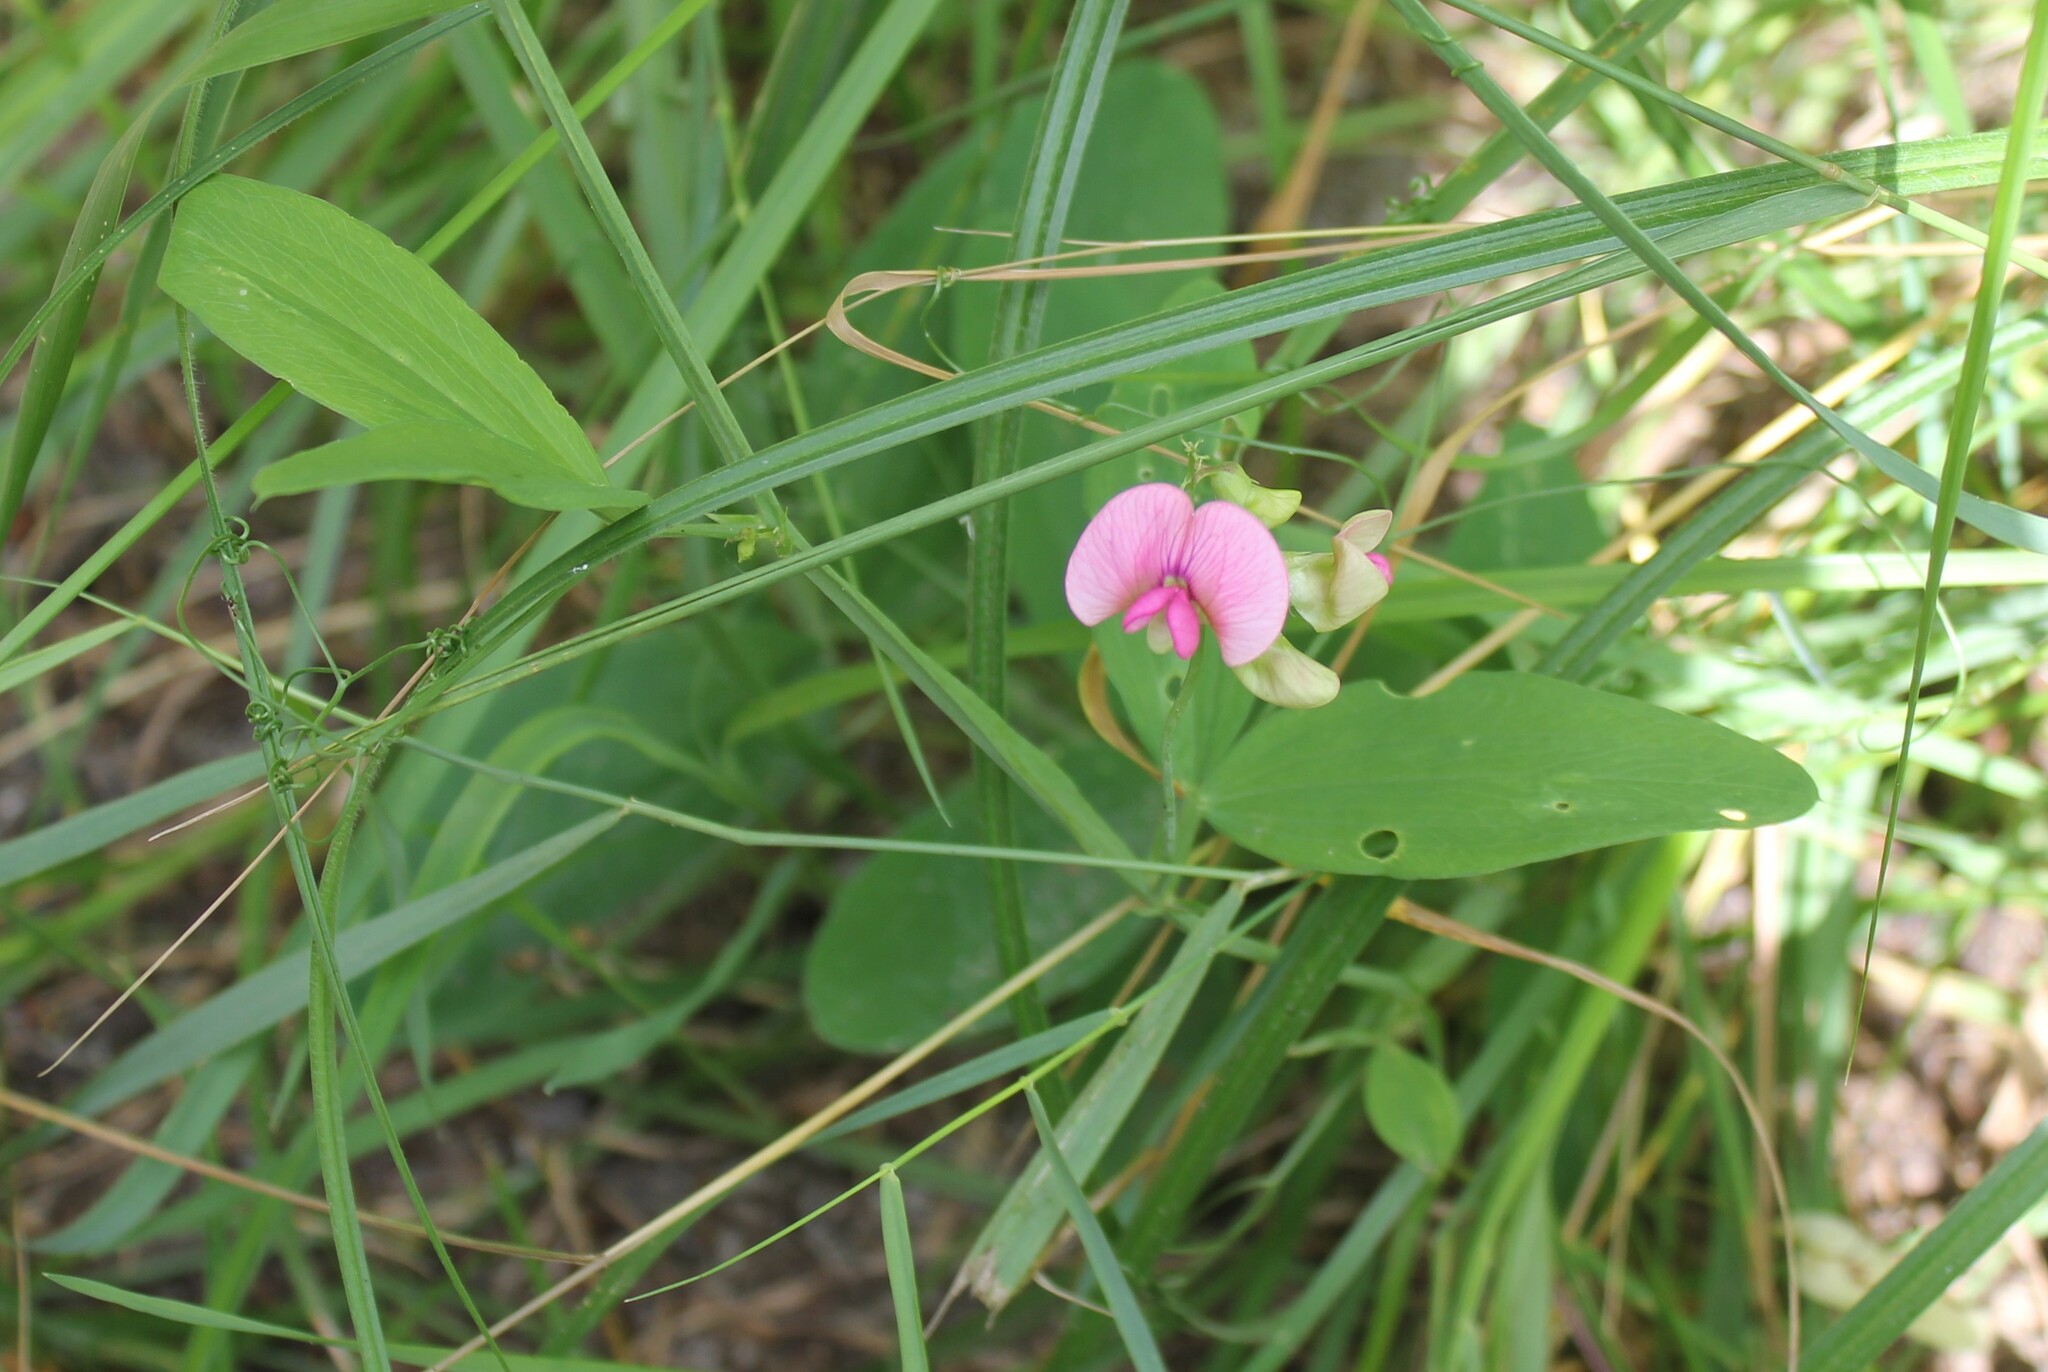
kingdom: Plantae
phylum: Tracheophyta
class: Magnoliopsida
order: Fabales
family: Fabaceae
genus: Lathyrus
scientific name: Lathyrus sylvestris
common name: Flat pea
